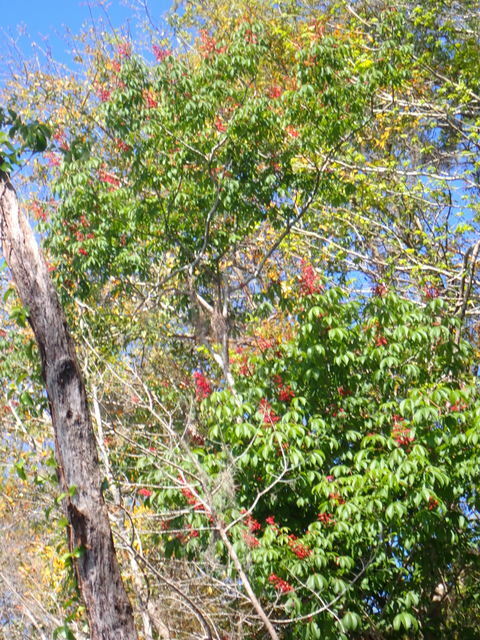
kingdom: Plantae
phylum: Tracheophyta
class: Magnoliopsida
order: Sapindales
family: Sapindaceae
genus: Aesculus
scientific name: Aesculus pavia
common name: Red buckeye
